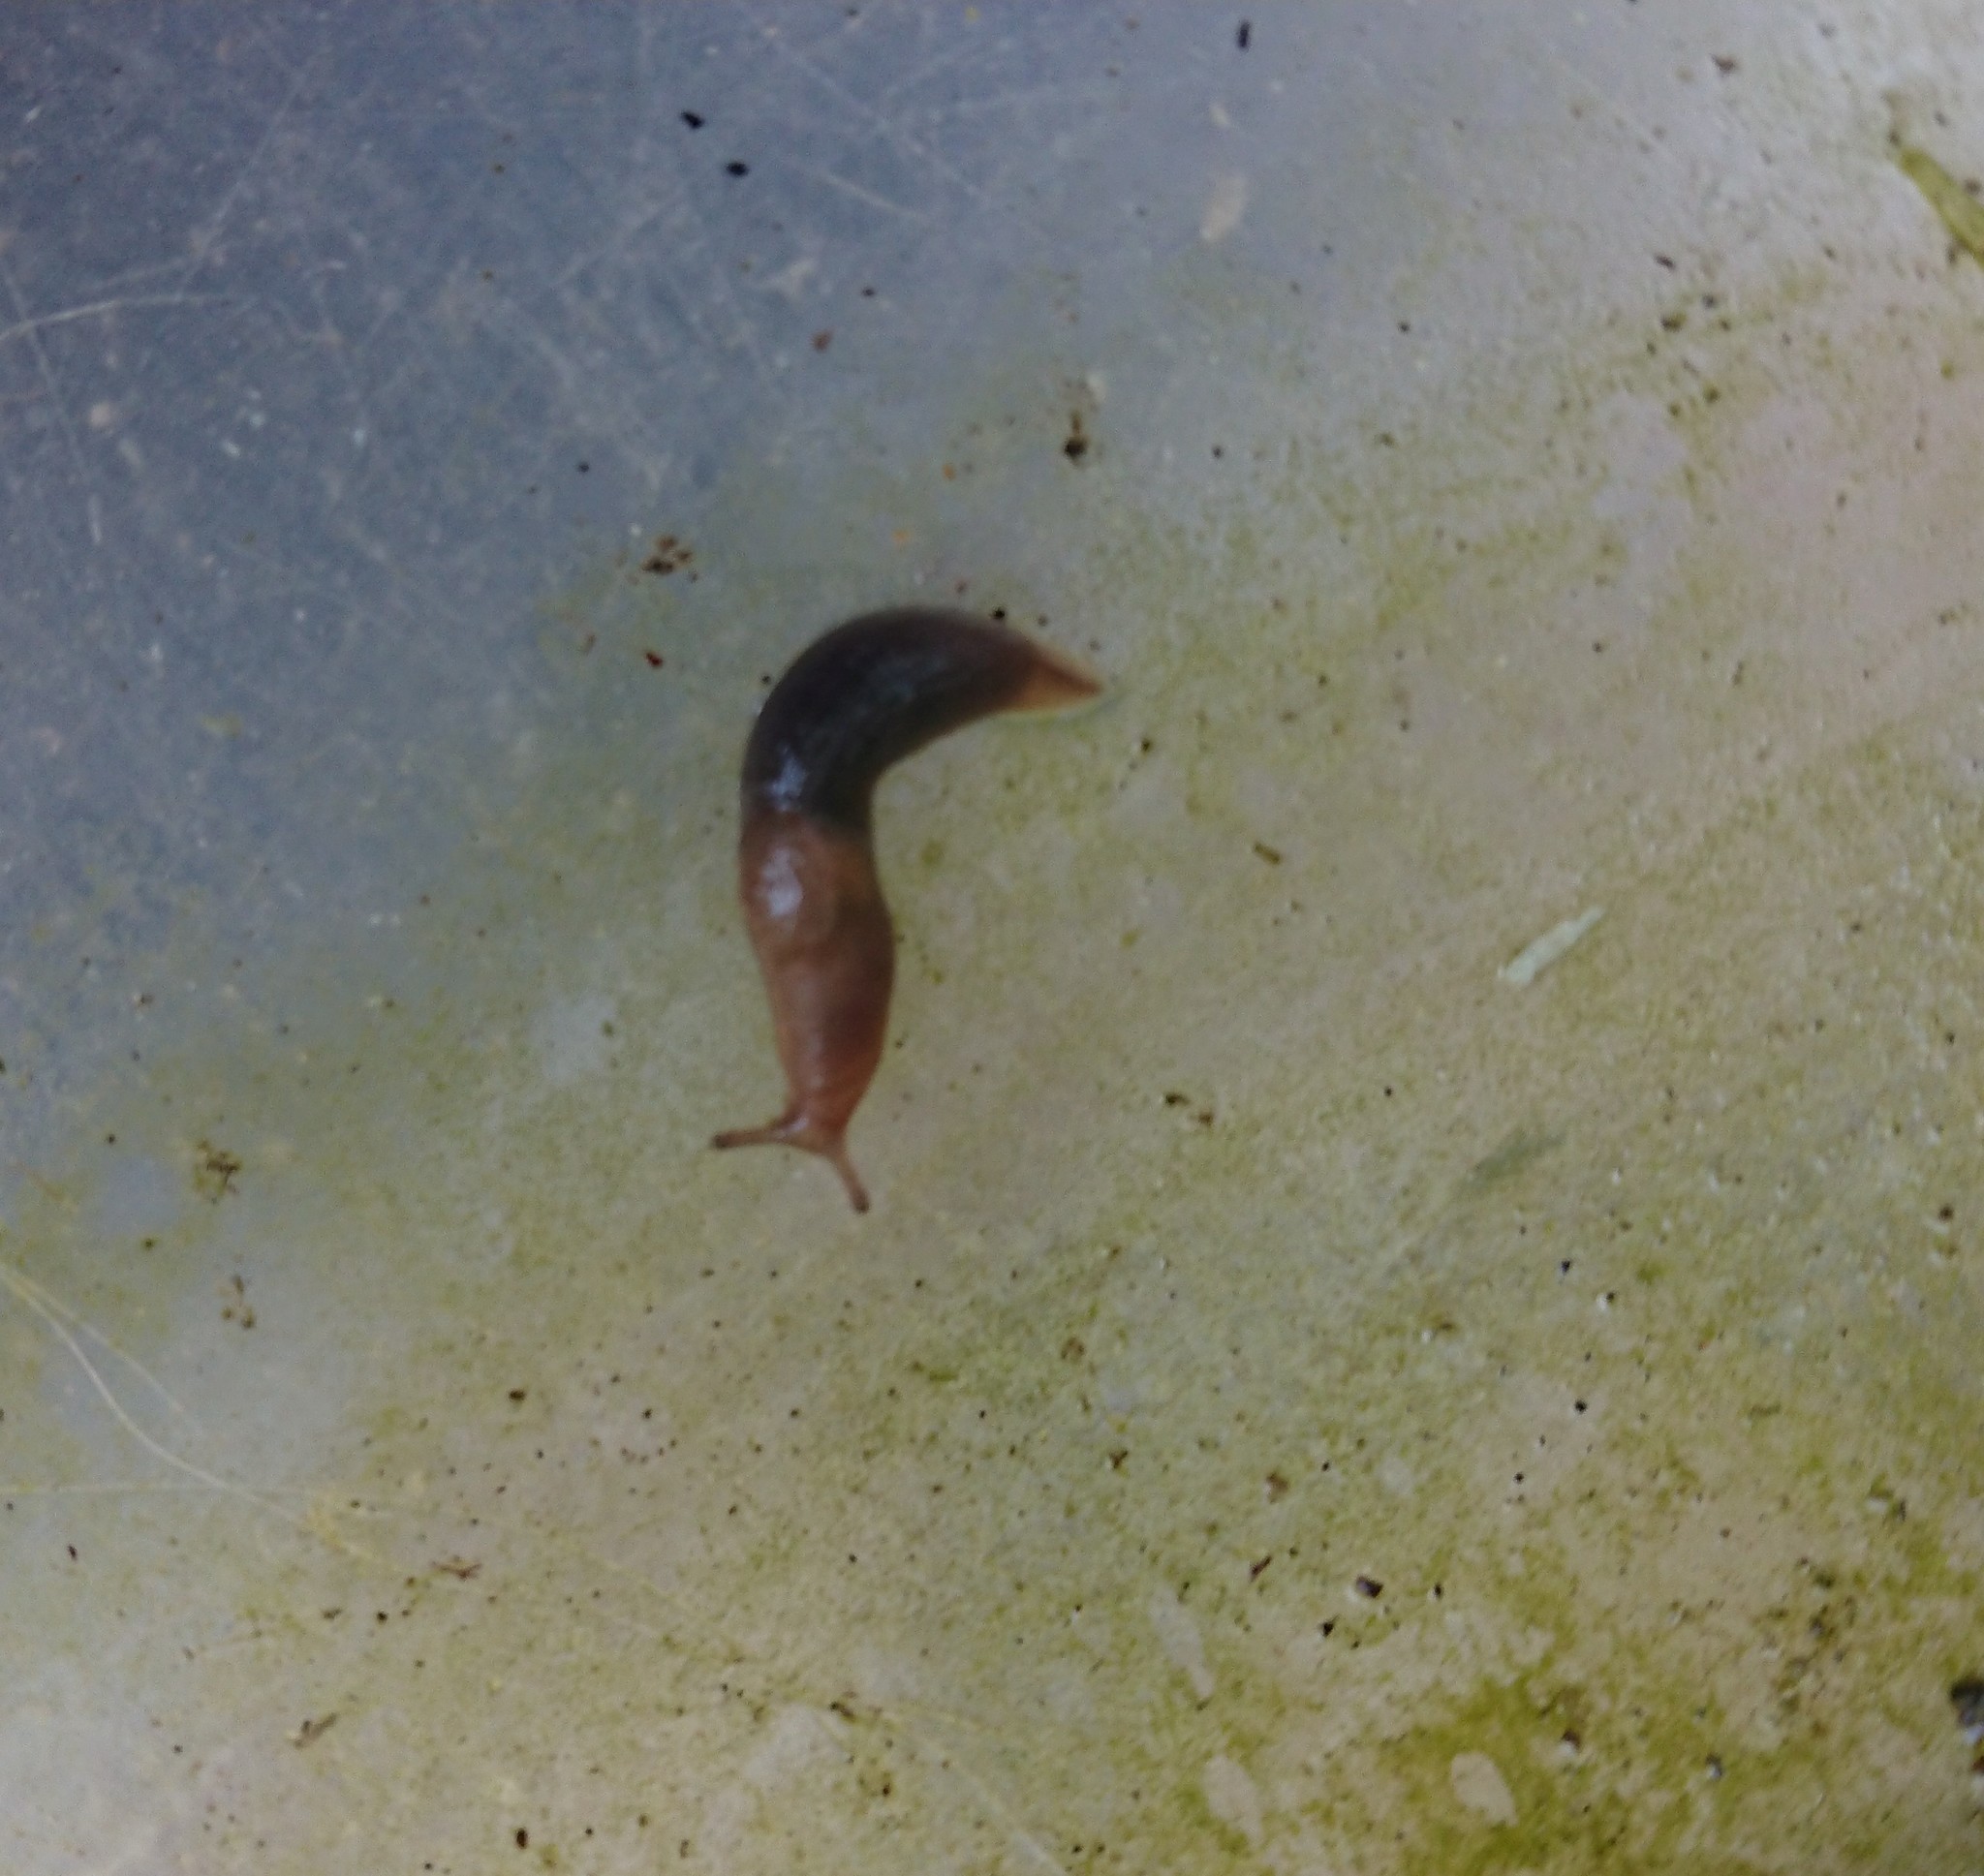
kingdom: Animalia
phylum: Mollusca
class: Gastropoda
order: Stylommatophora
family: Agriolimacidae
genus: Deroceras
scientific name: Deroceras invadens
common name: Caruana's slug
